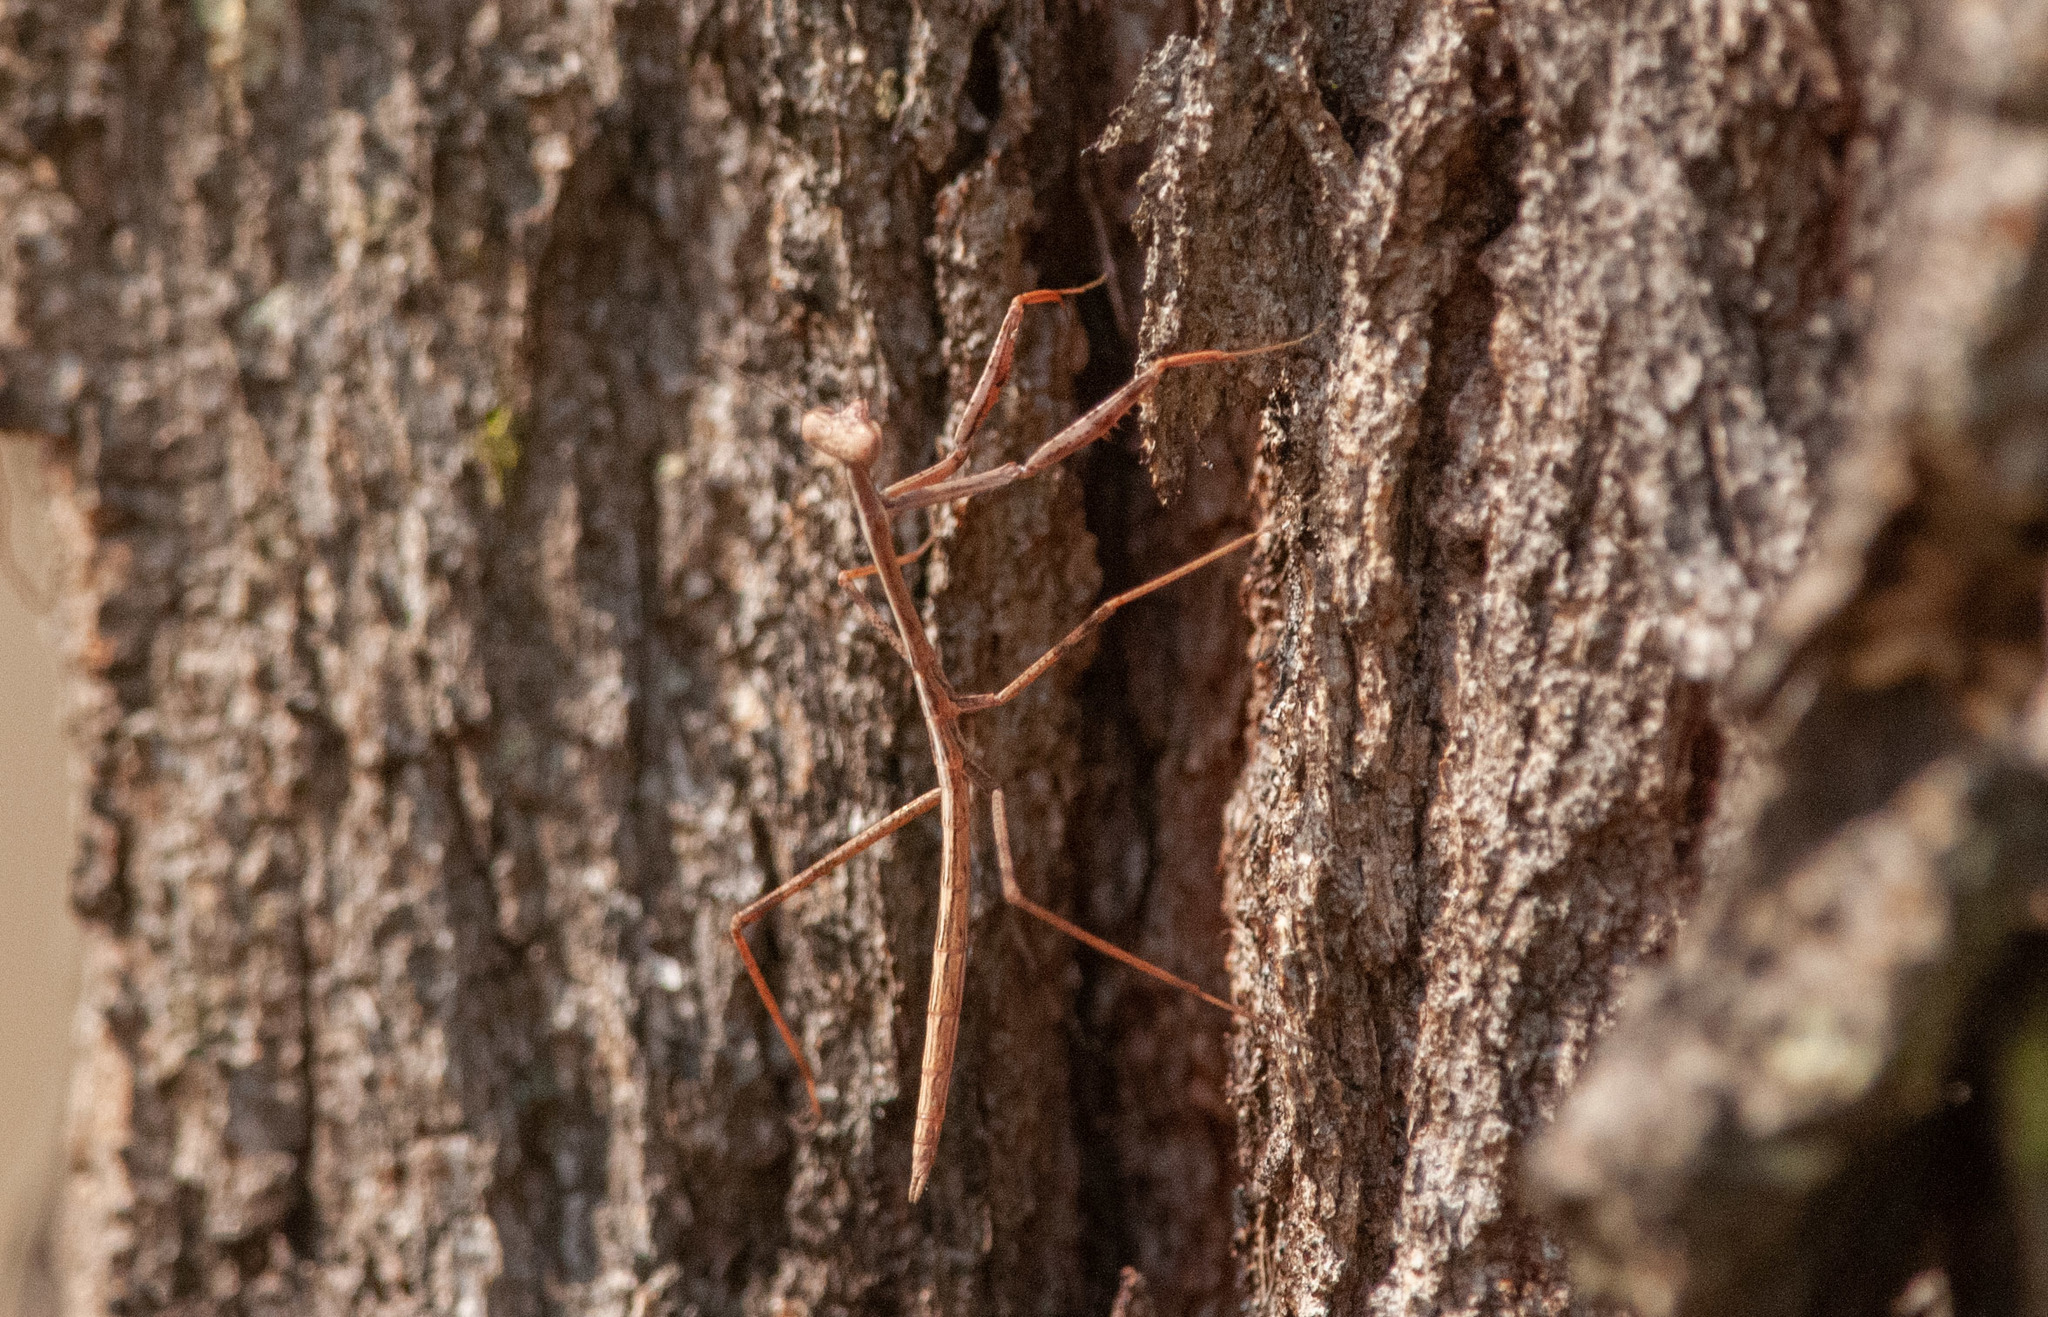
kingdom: Animalia
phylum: Arthropoda
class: Insecta
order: Mantodea
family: Mantidae
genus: Archimantis
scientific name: Archimantis latistyla
